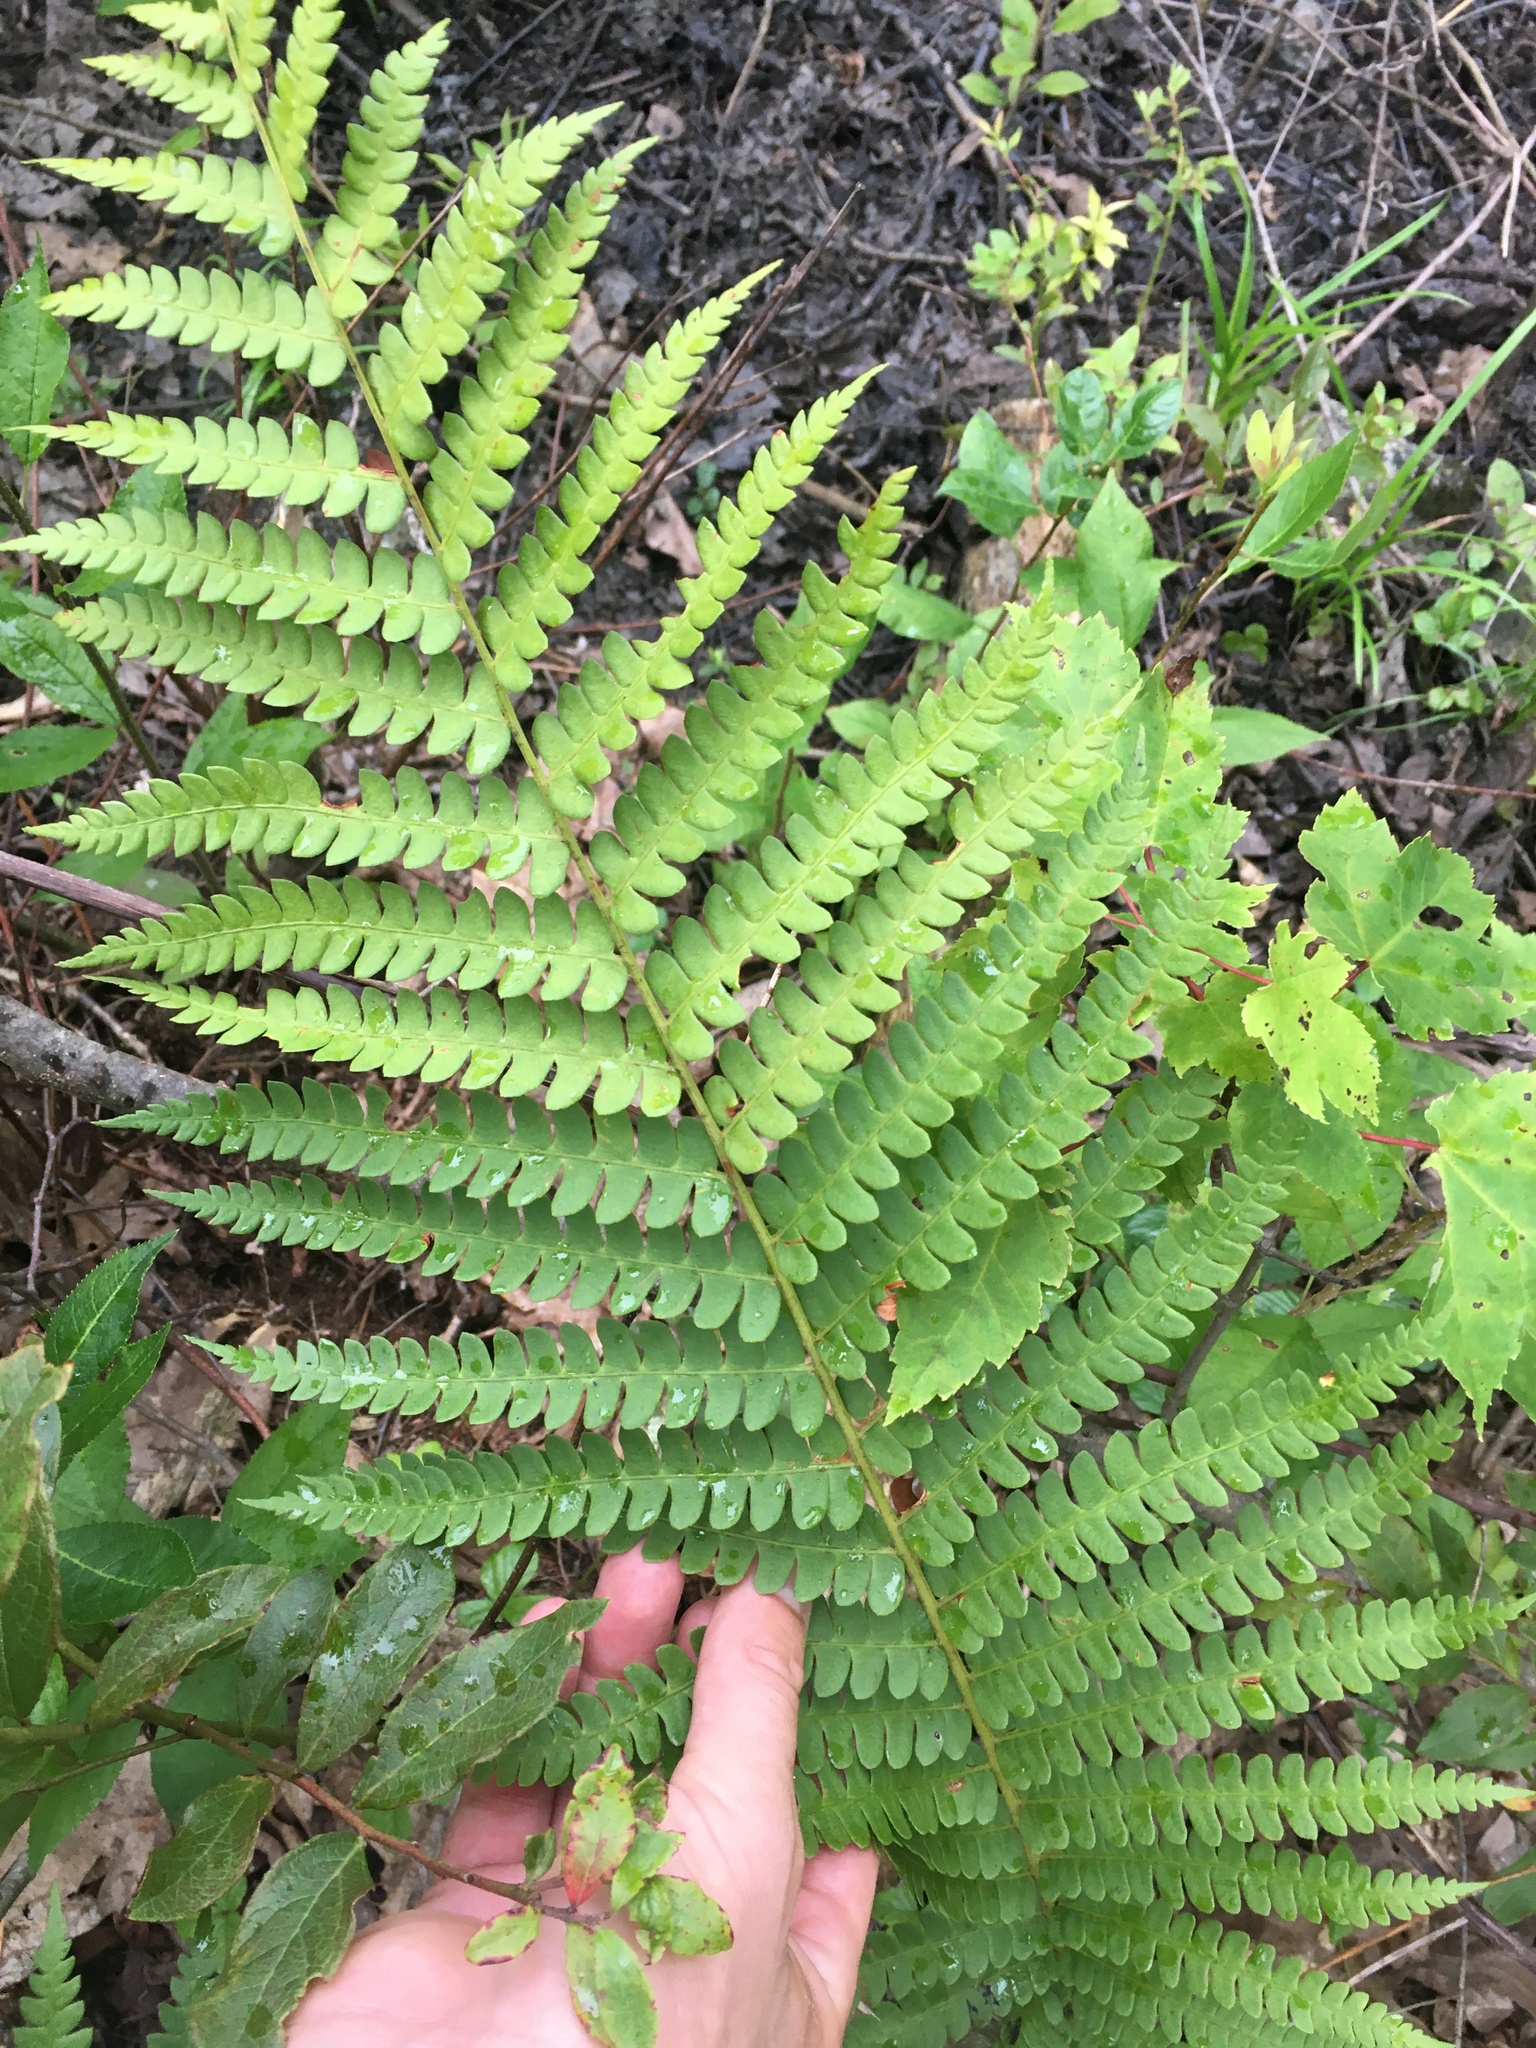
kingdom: Plantae
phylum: Tracheophyta
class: Polypodiopsida
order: Osmundales
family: Osmundaceae
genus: Osmundastrum
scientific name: Osmundastrum cinnamomeum
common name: Cinnamon fern
